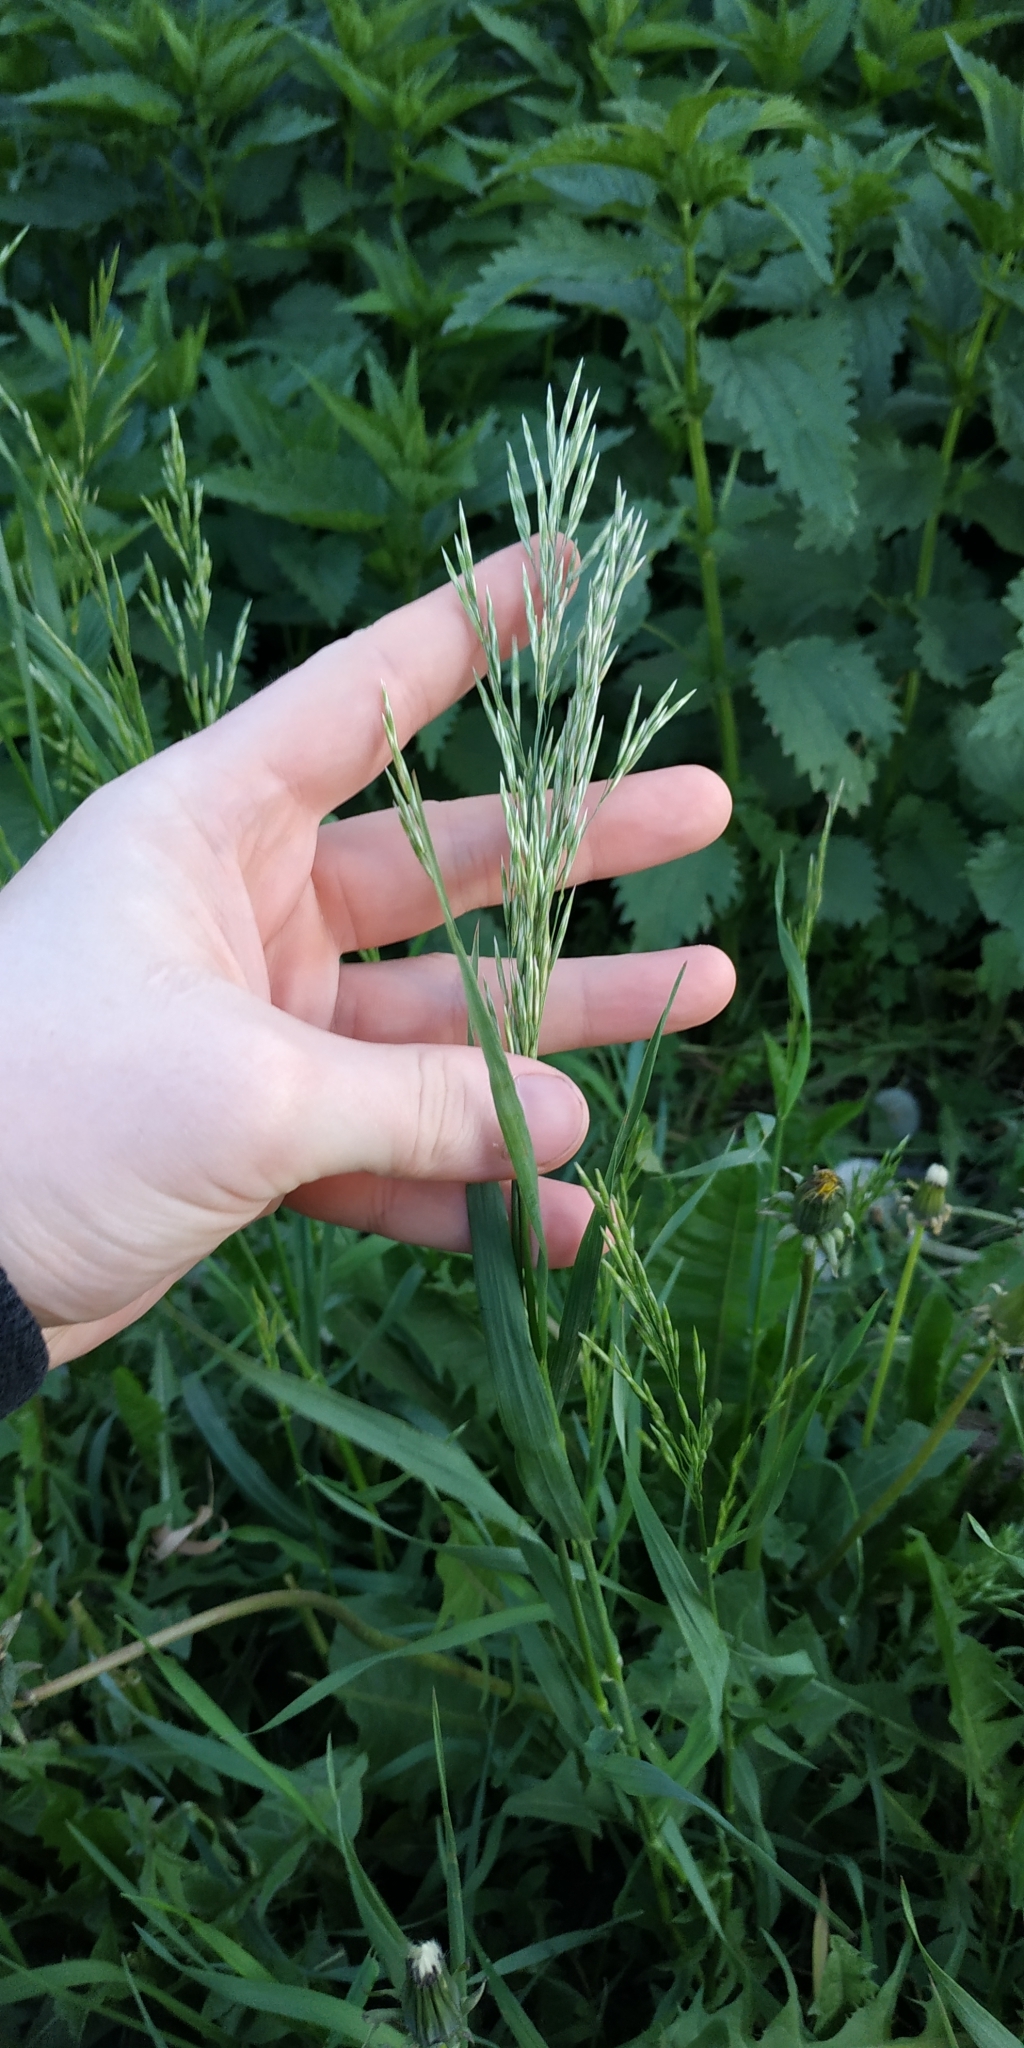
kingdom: Plantae
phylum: Tracheophyta
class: Liliopsida
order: Poales
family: Poaceae
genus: Bromus
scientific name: Bromus inermis
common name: Smooth brome
